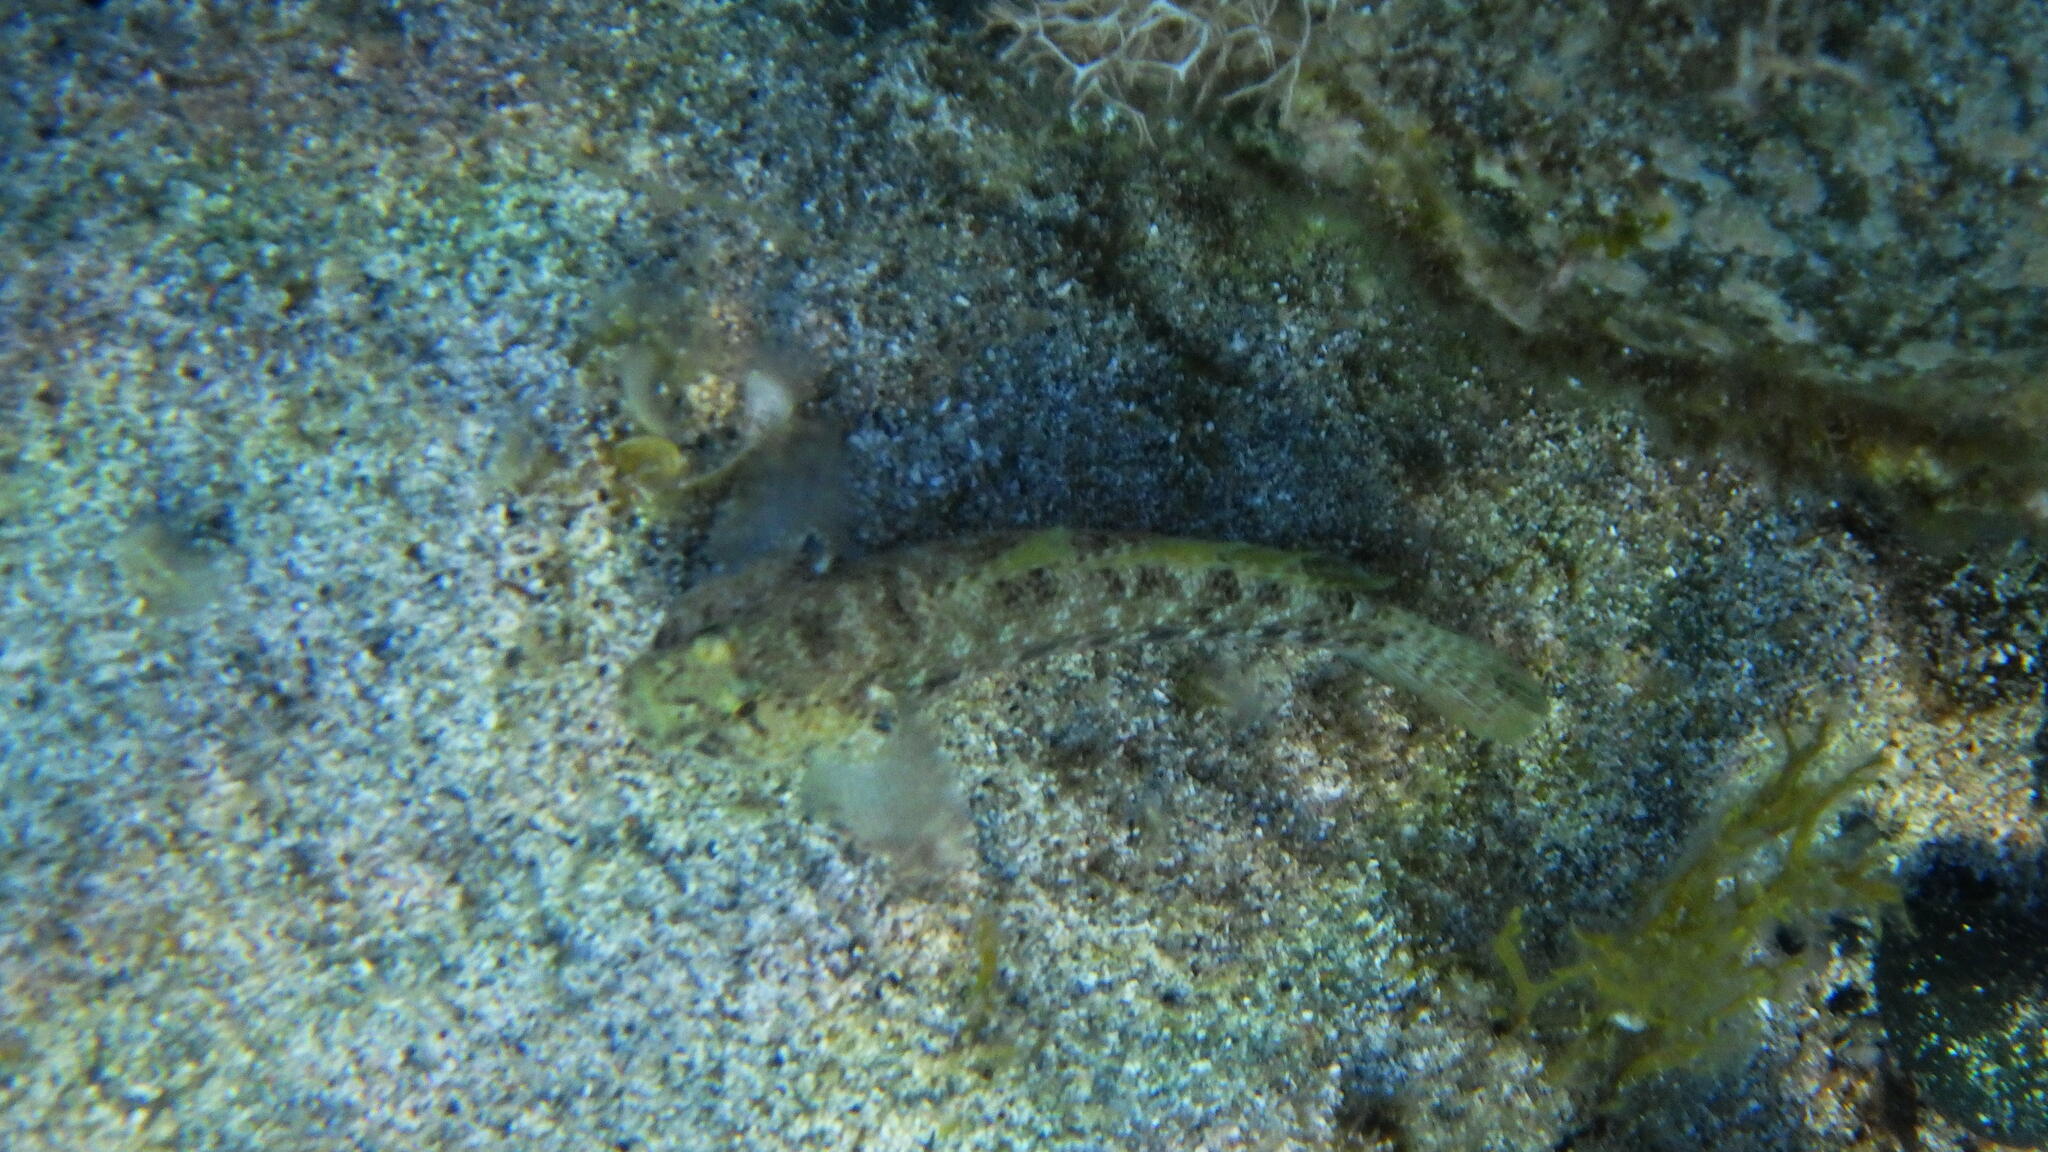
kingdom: Animalia
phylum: Chordata
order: Perciformes
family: Gobiidae
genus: Gobius
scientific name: Gobius incognitus
